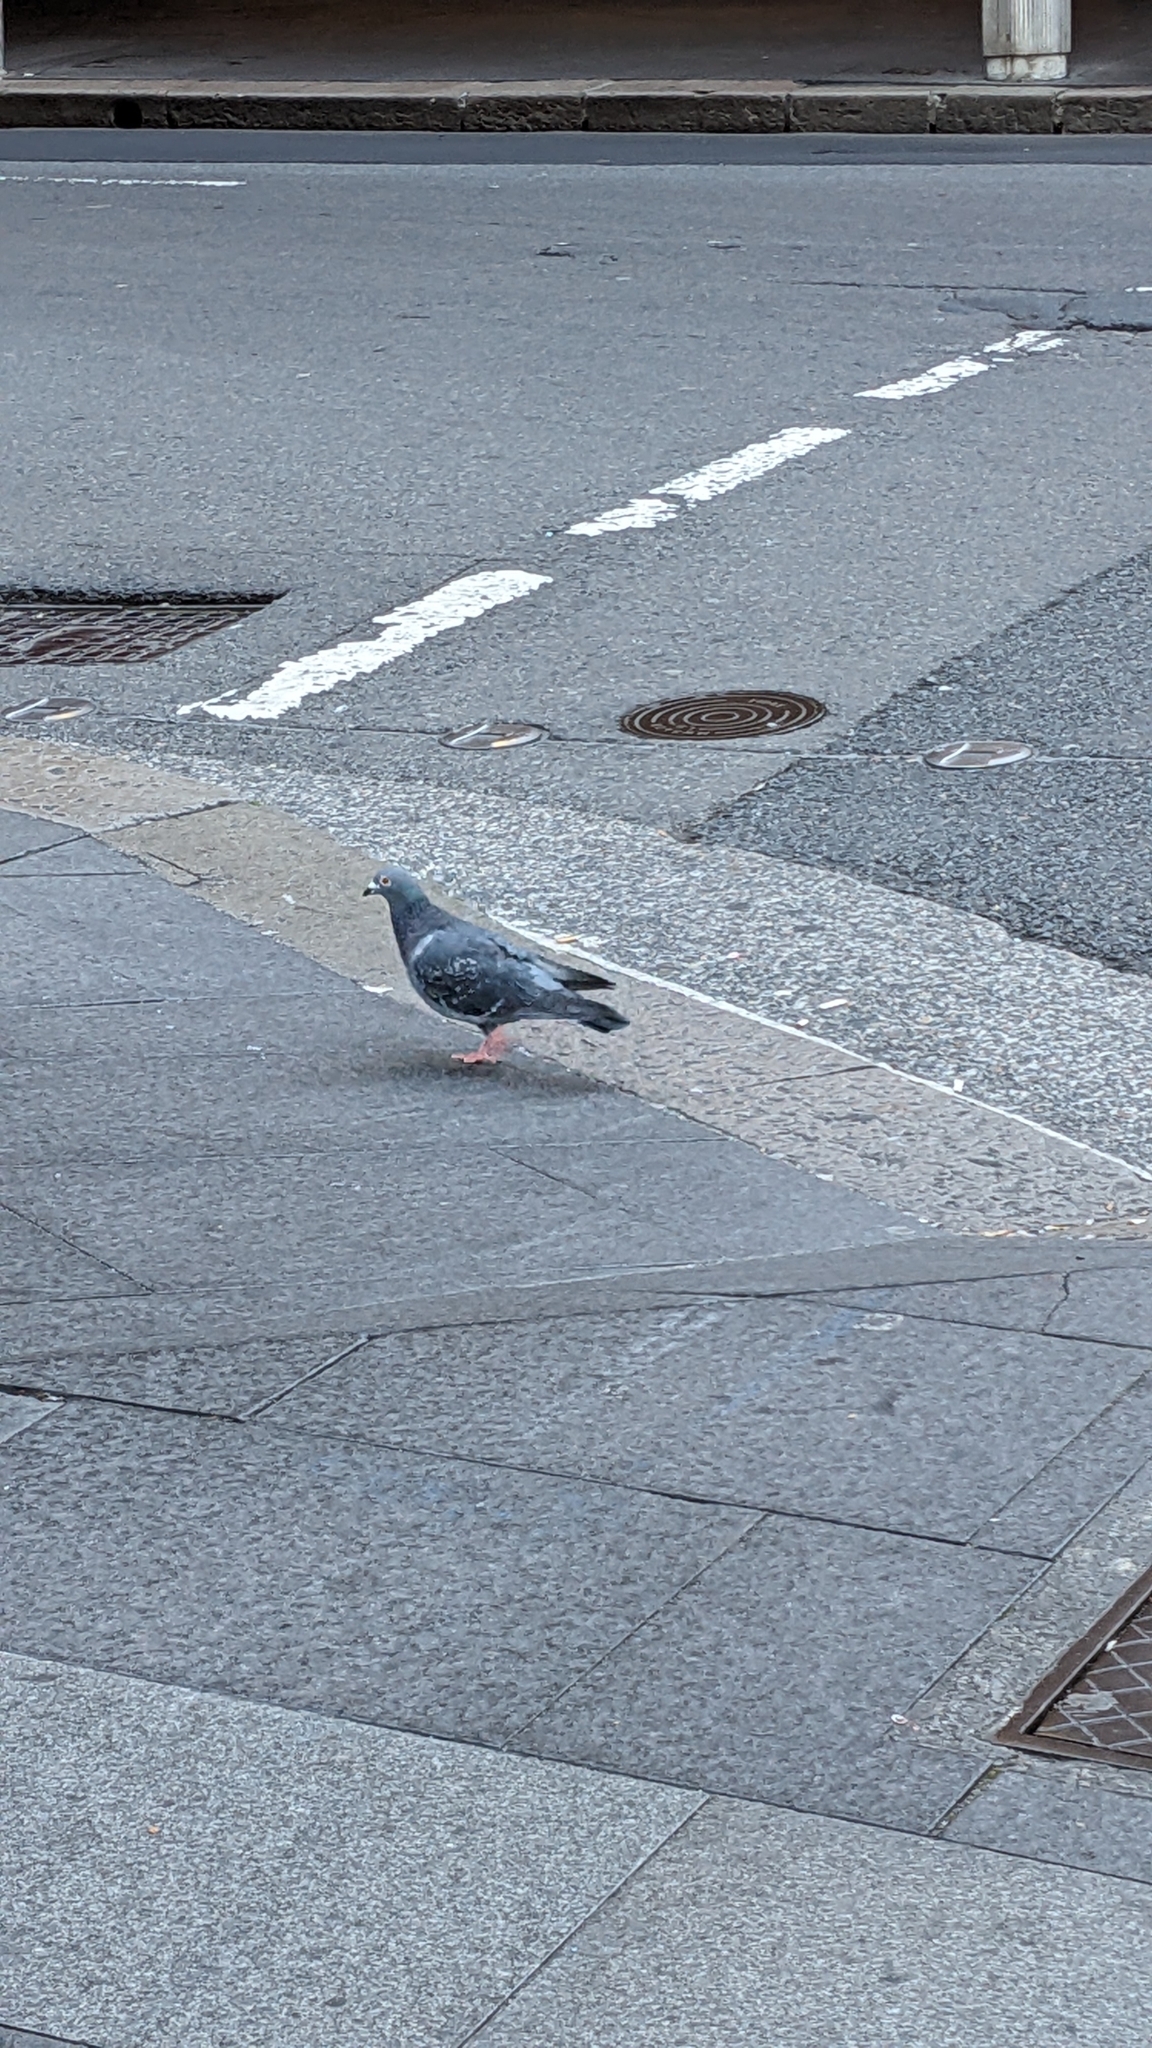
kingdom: Animalia
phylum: Chordata
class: Aves
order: Columbiformes
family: Columbidae
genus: Columba
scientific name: Columba livia
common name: Rock pigeon
